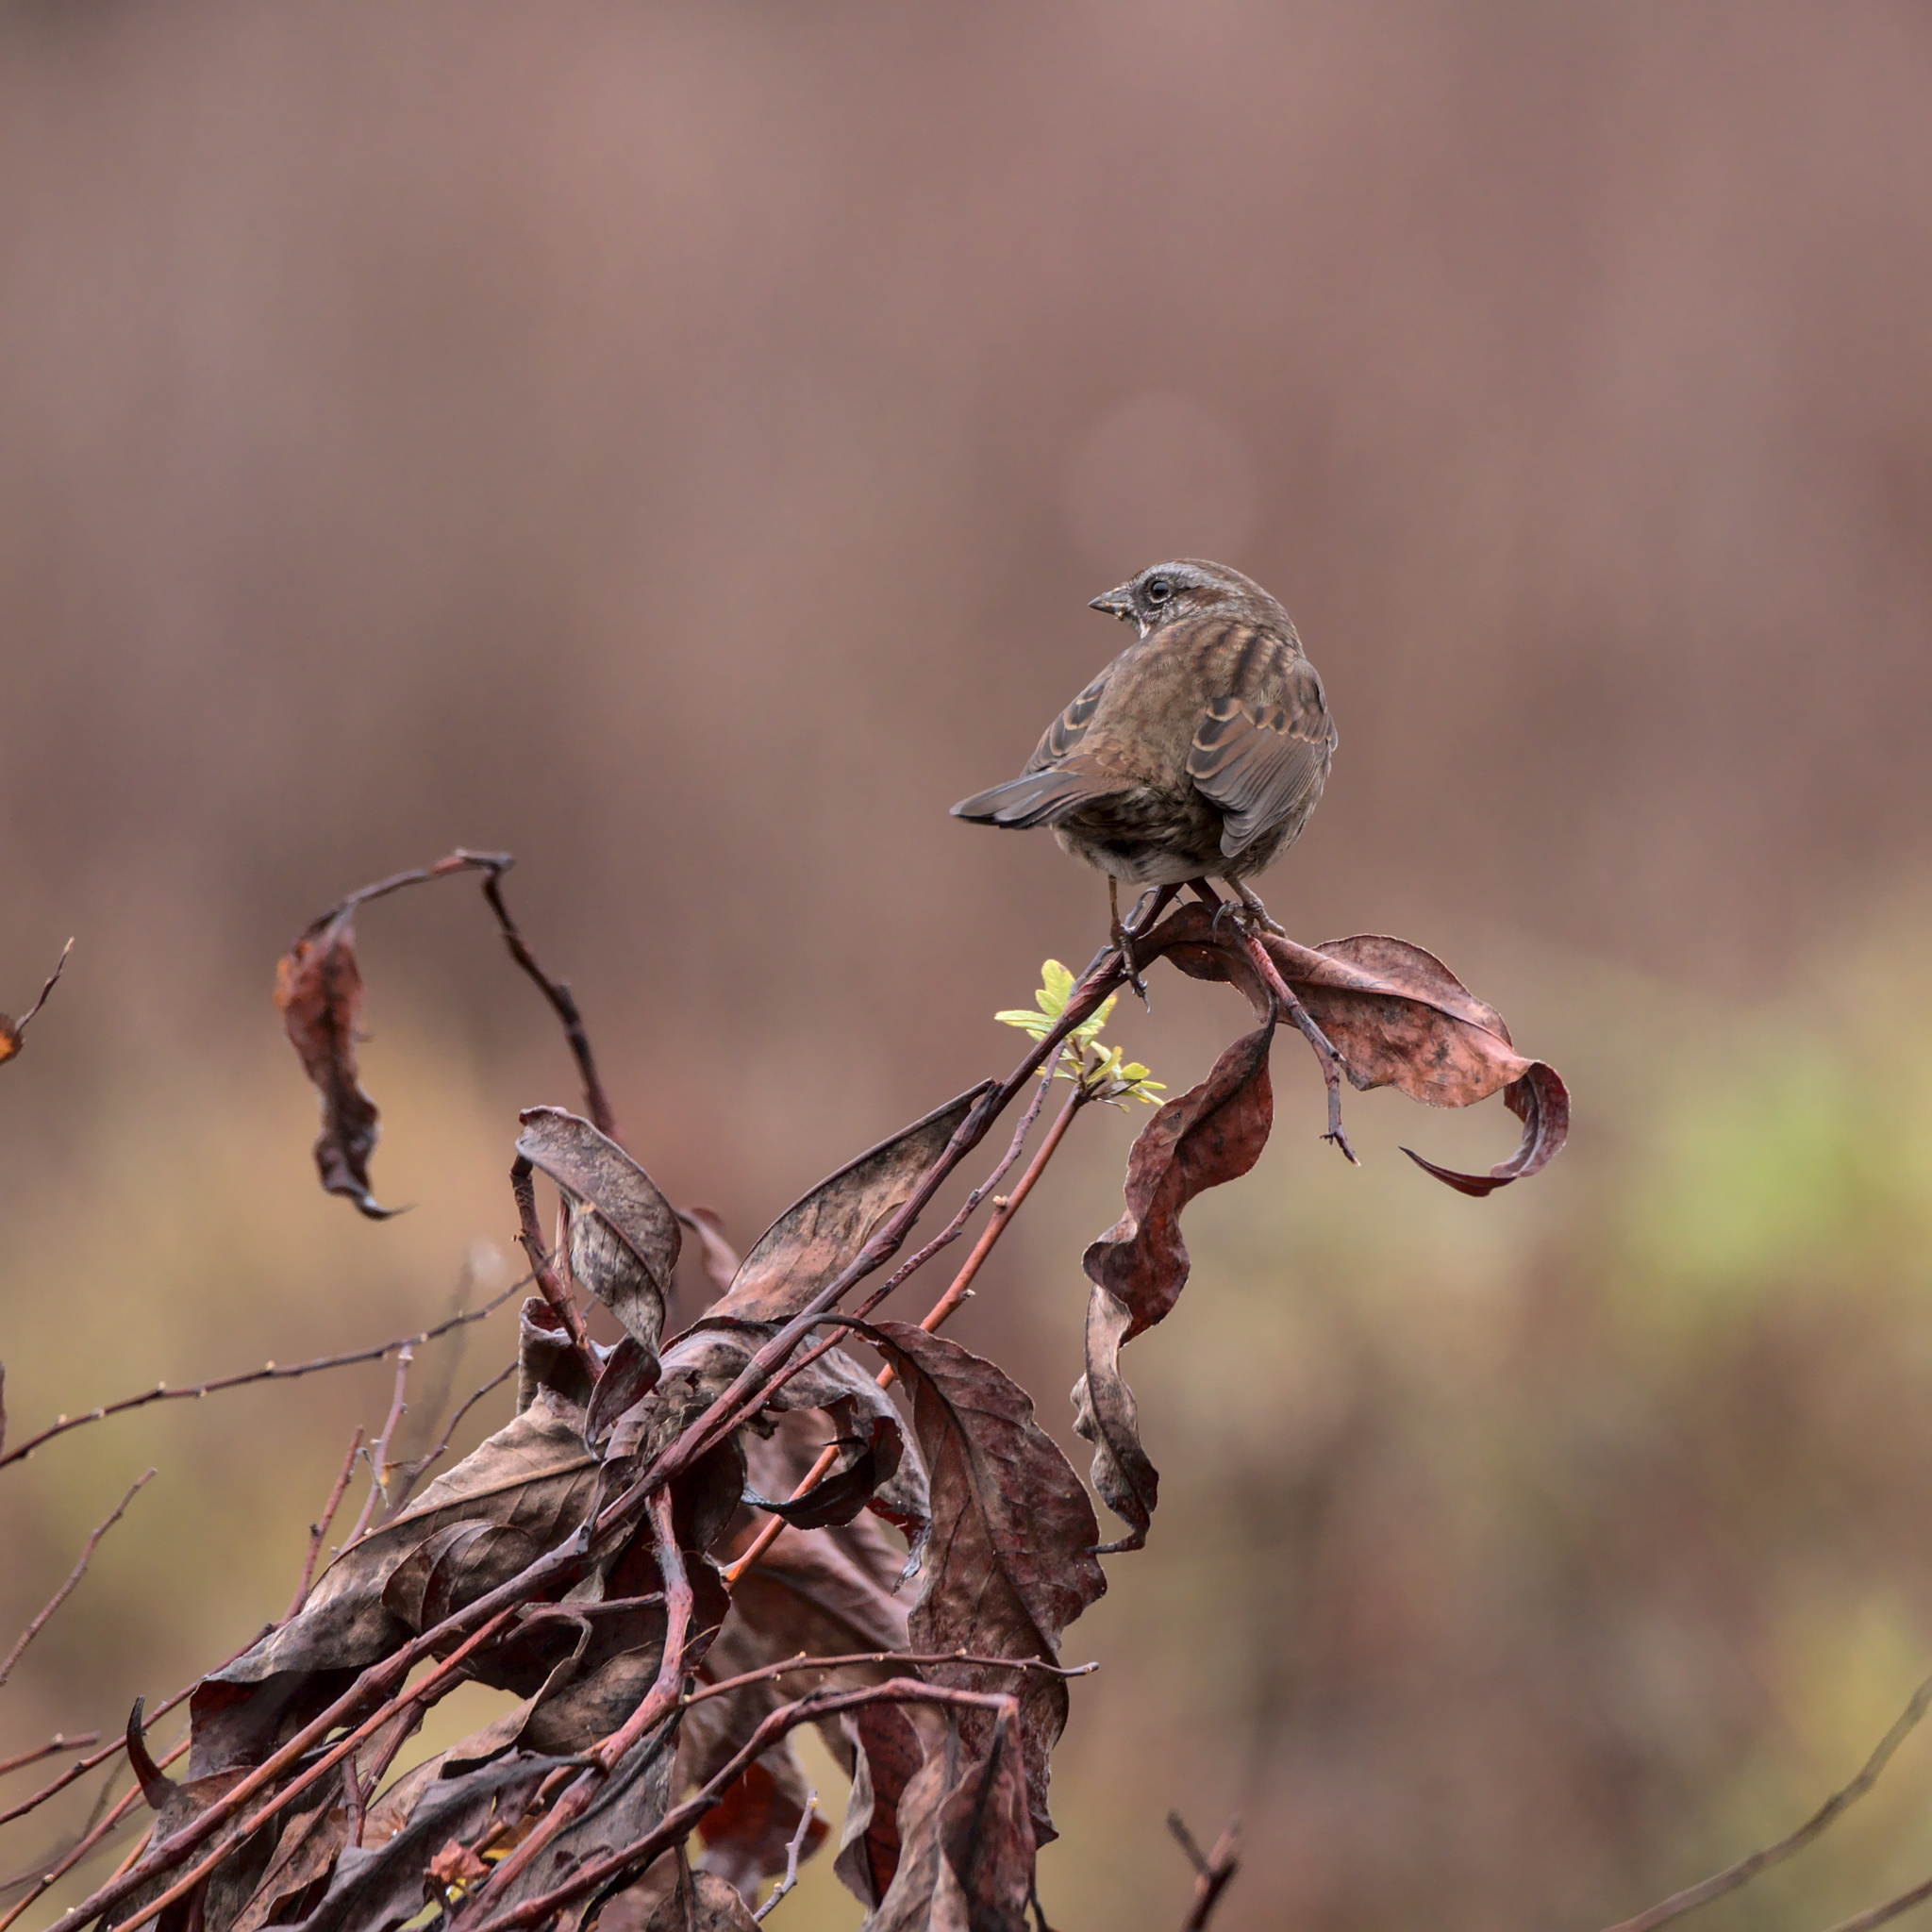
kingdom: Animalia
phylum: Chordata
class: Aves
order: Passeriformes
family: Passerellidae
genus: Melospiza
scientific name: Melospiza melodia
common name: Song sparrow
